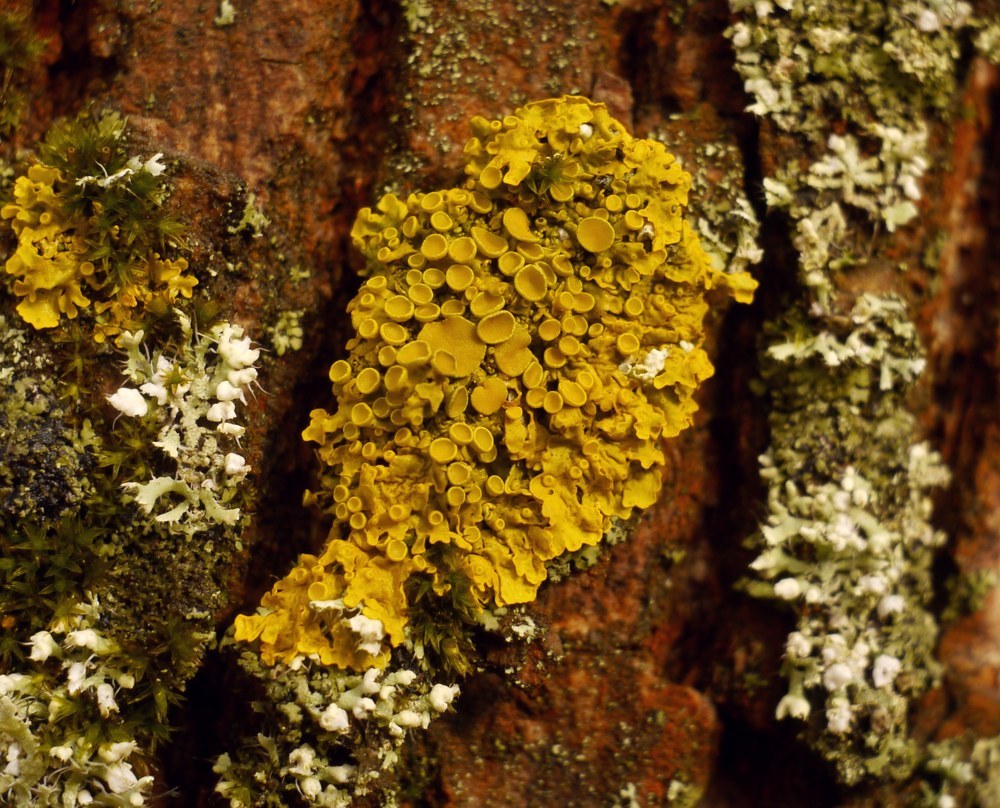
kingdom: Fungi
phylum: Ascomycota
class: Lecanoromycetes
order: Teloschistales
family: Teloschistaceae
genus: Xanthoria
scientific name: Xanthoria parietina
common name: Common orange lichen
